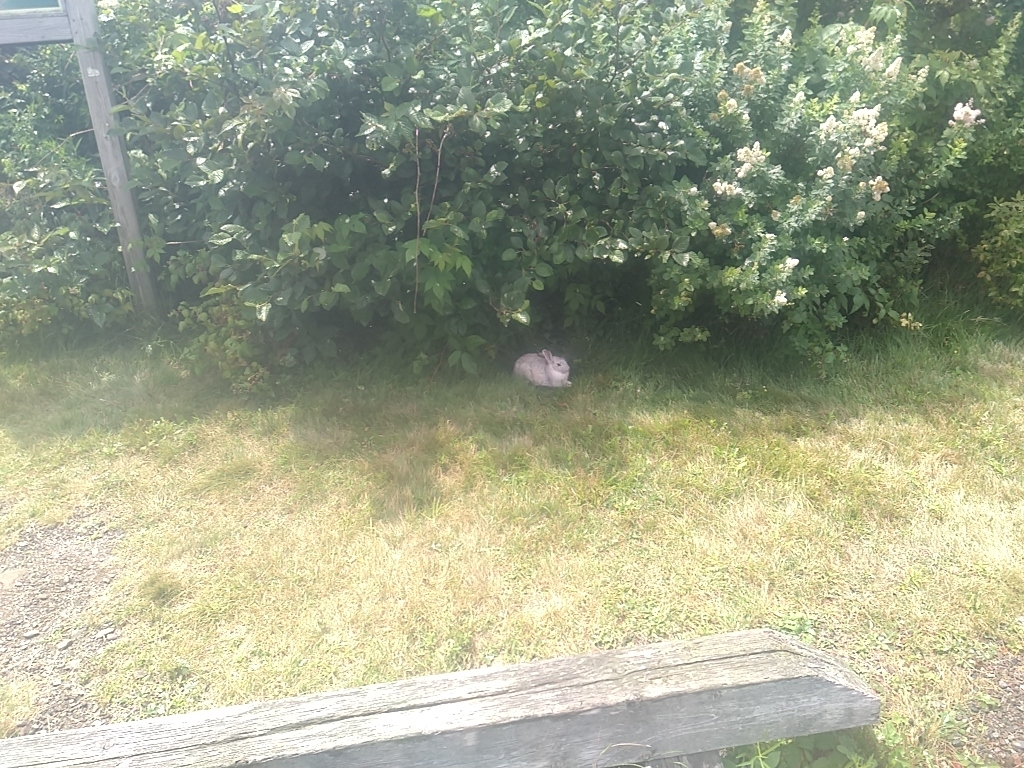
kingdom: Animalia
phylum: Chordata
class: Mammalia
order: Lagomorpha
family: Leporidae
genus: Oryctolagus
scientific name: Oryctolagus cuniculus
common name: European rabbit
